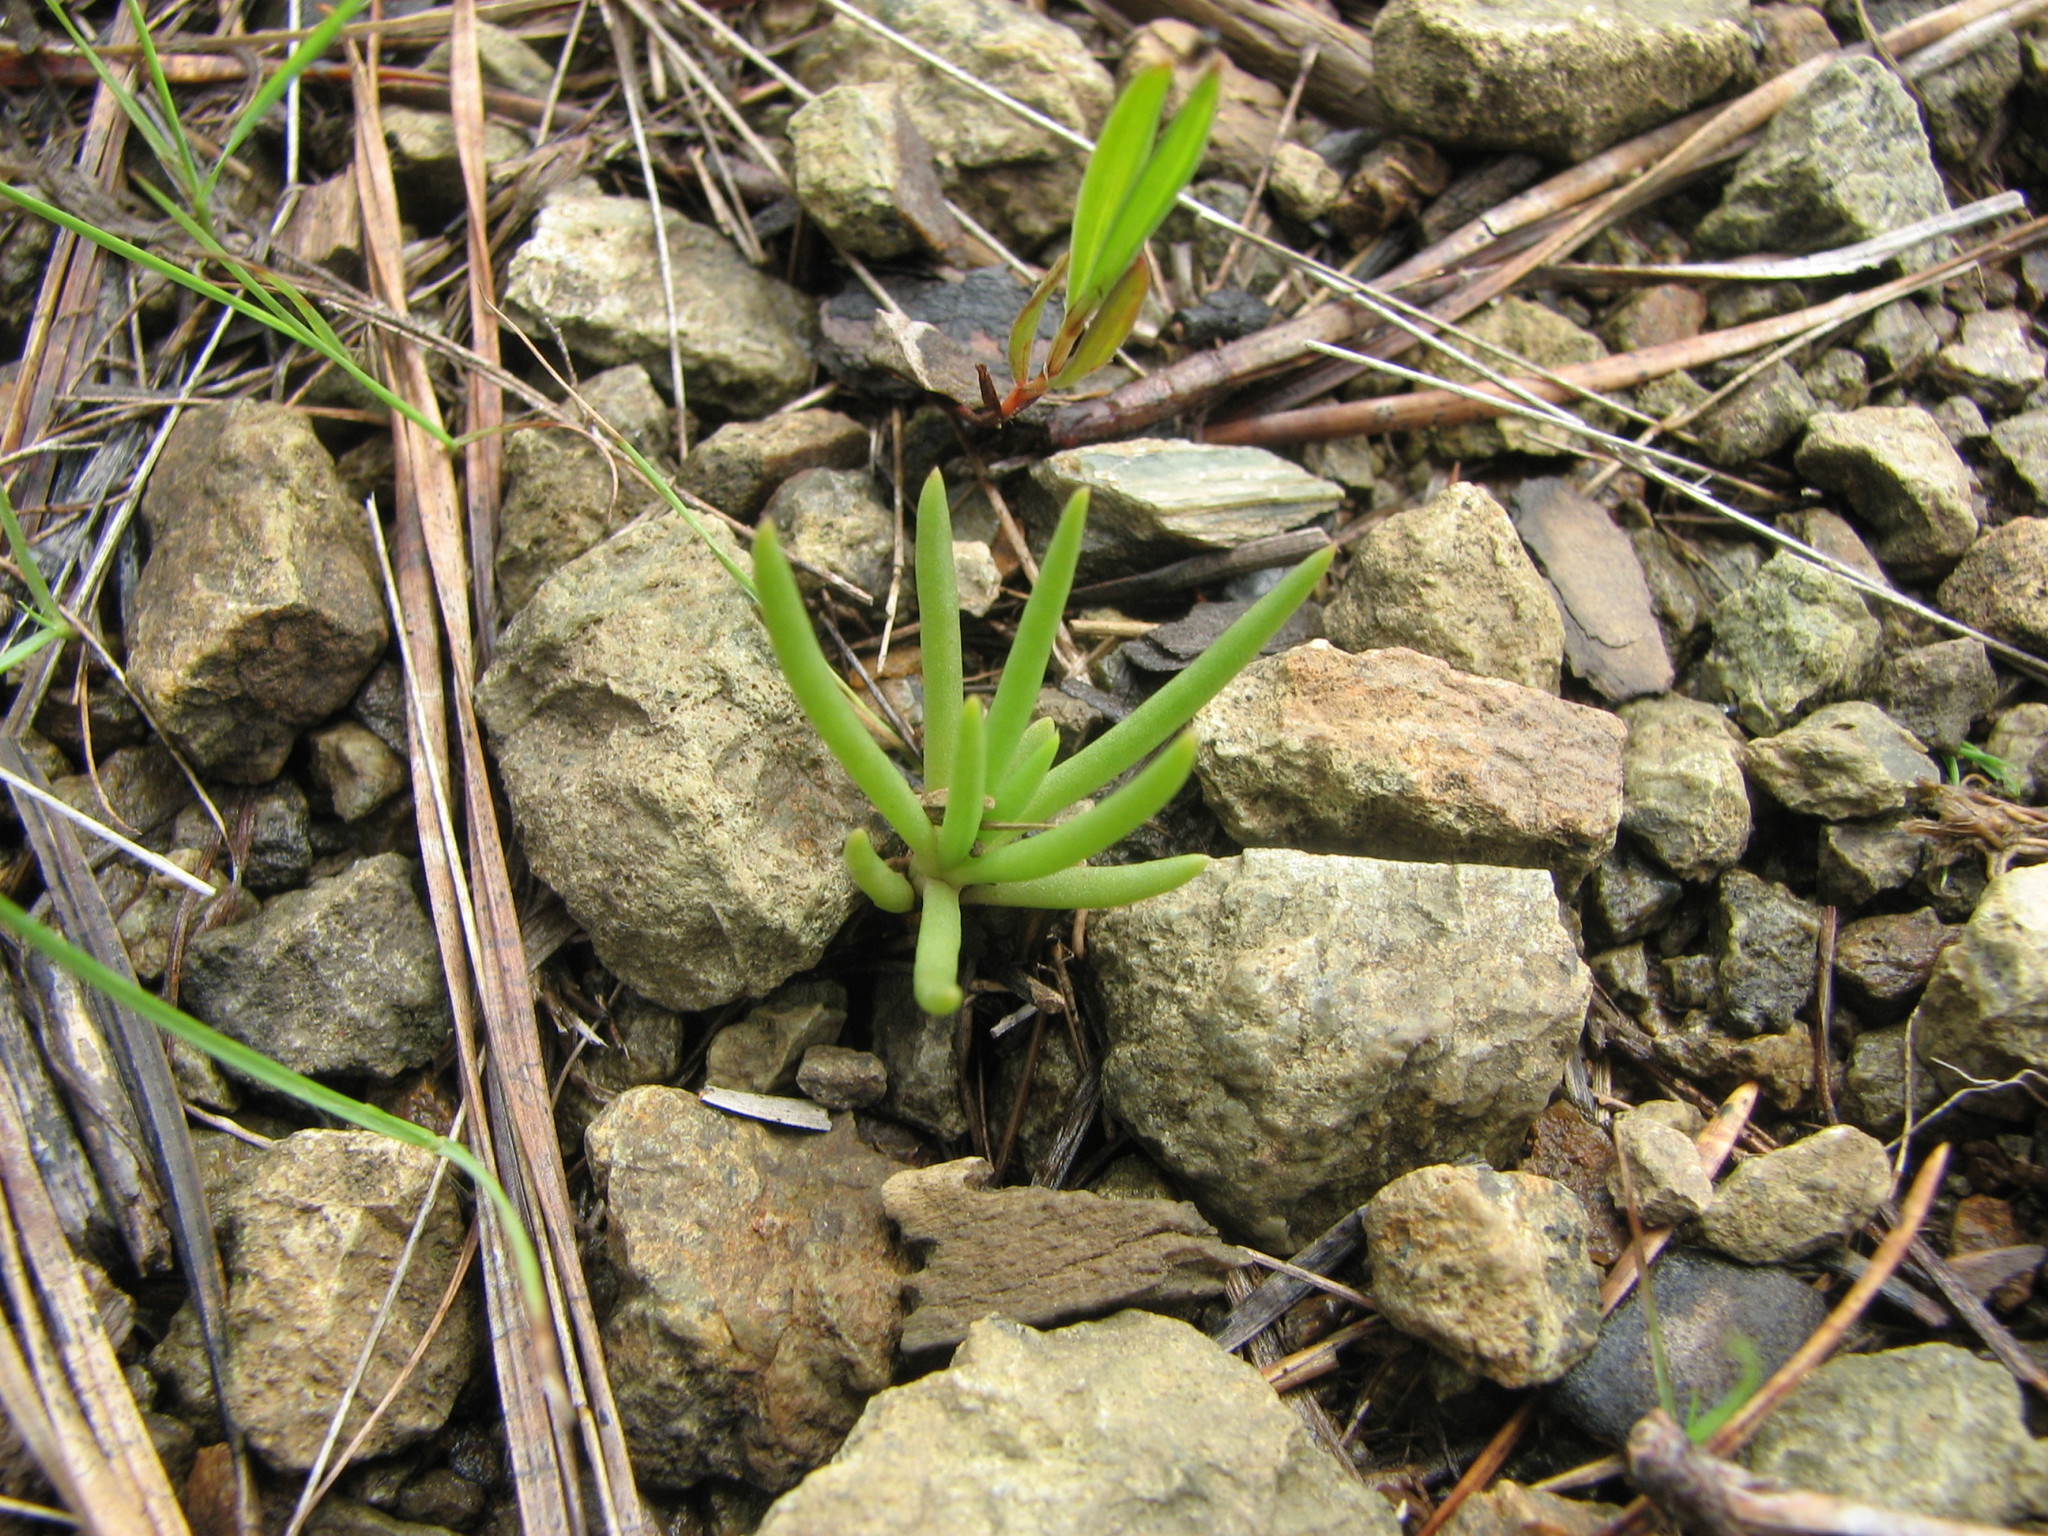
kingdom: Plantae
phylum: Tracheophyta
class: Magnoliopsida
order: Caryophyllales
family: Montiaceae
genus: Phemeranthus
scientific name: Phemeranthus teretifolius
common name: Quill fameflower
